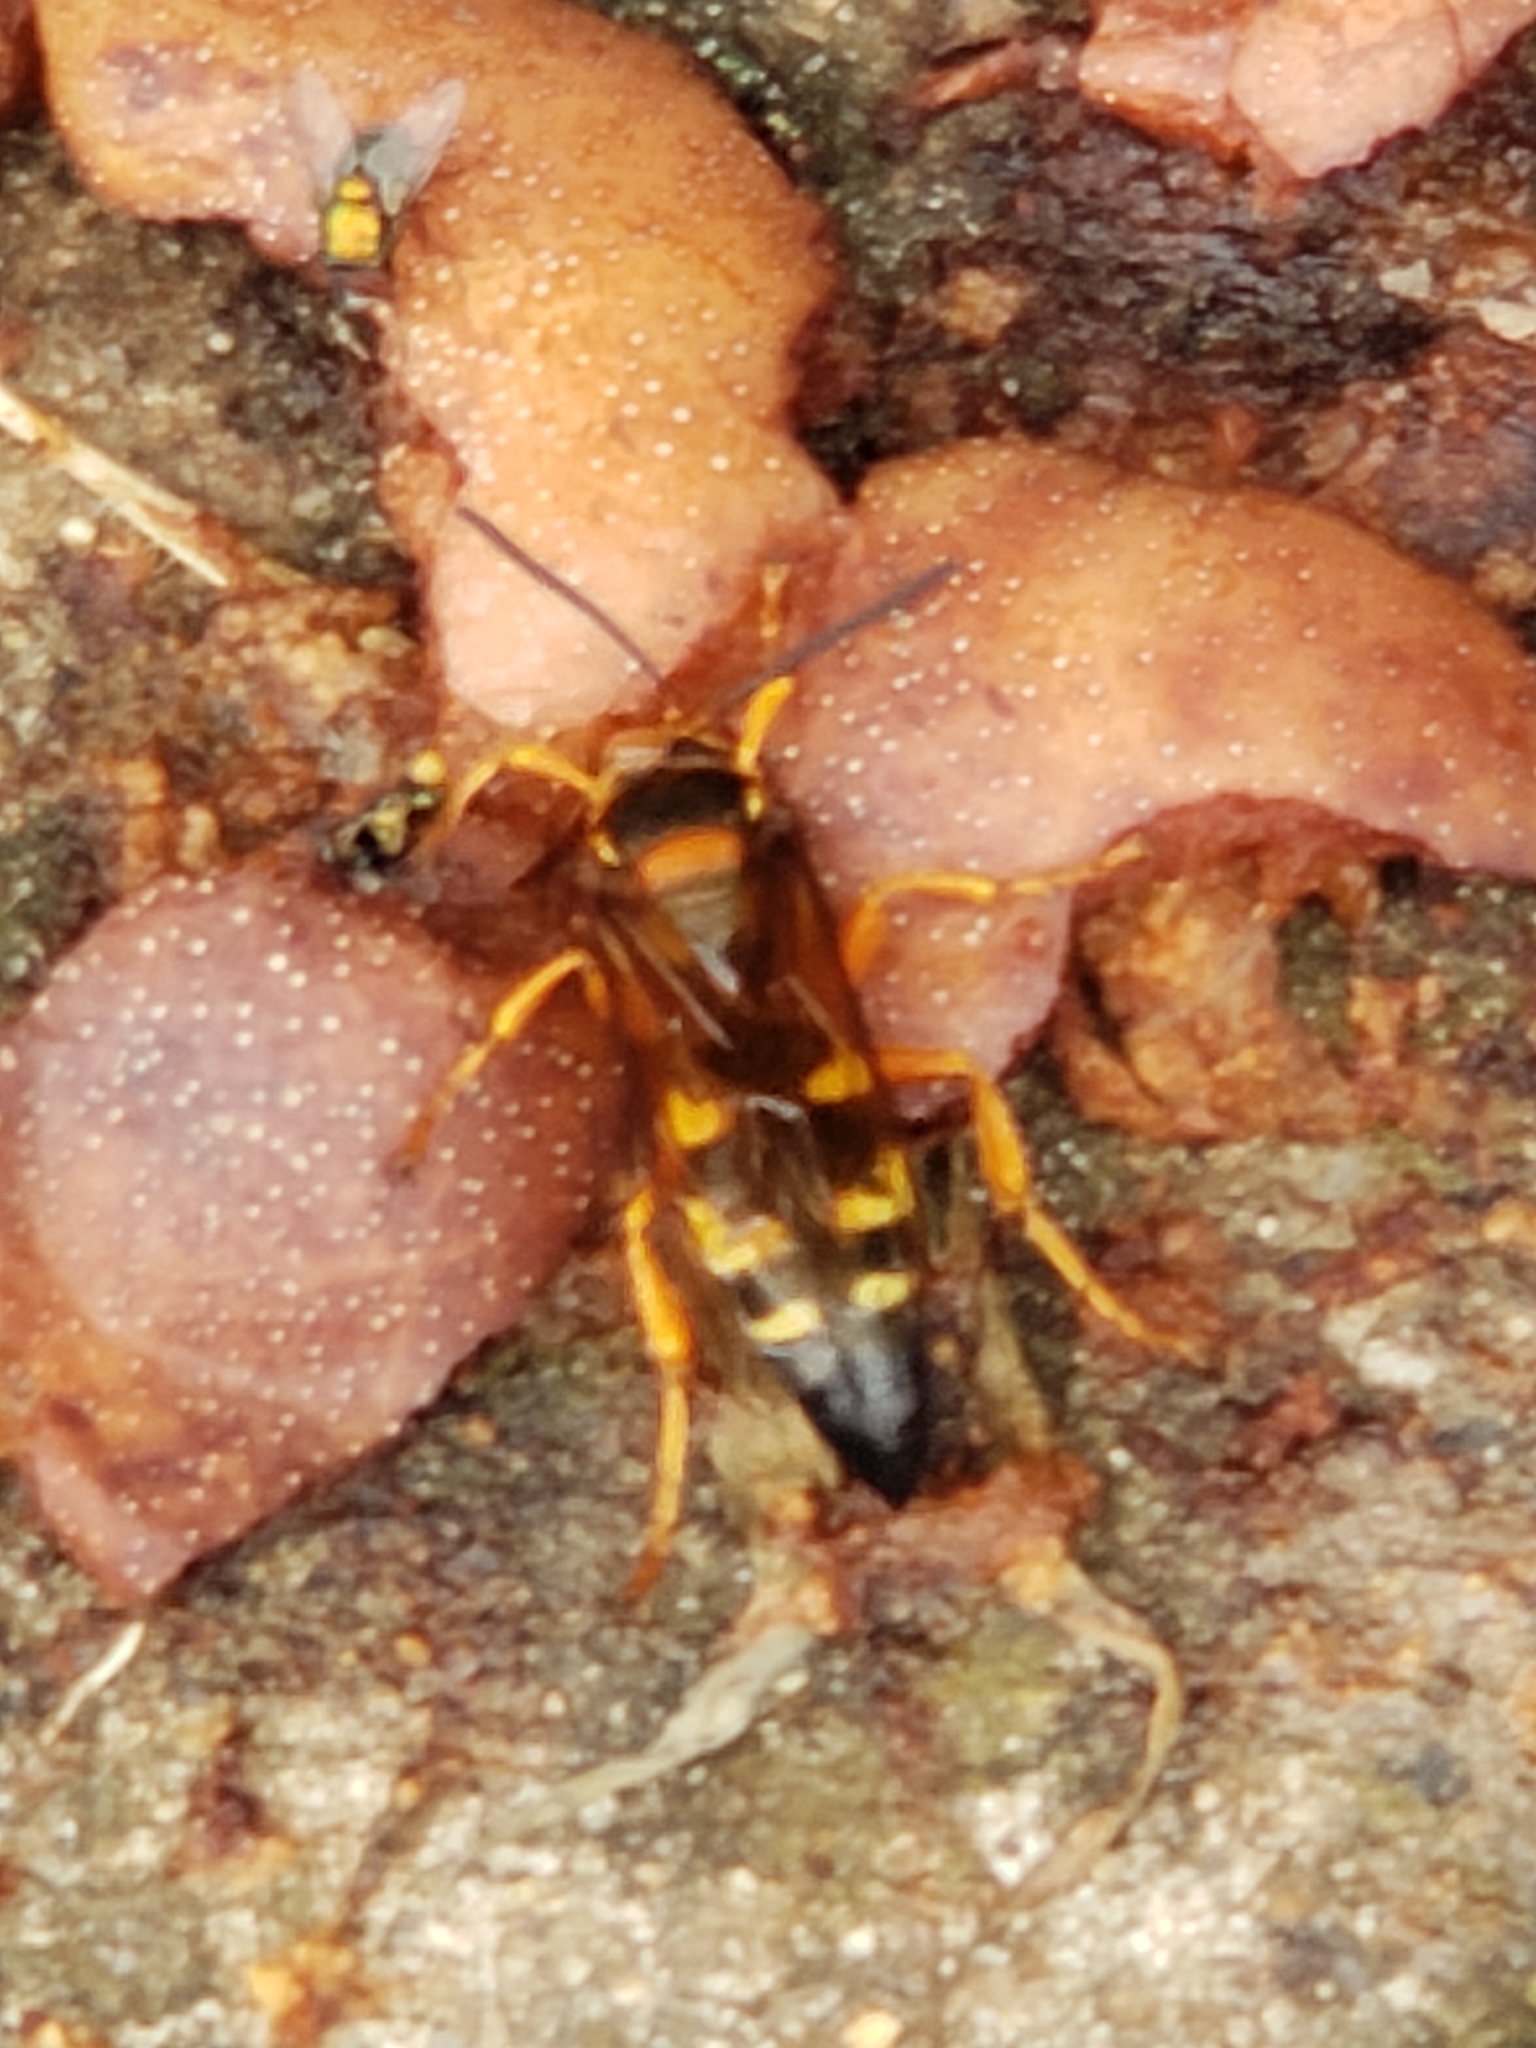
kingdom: Animalia
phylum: Arthropoda
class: Insecta
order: Hymenoptera
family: Crabronidae
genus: Sphecius
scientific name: Sphecius speciosus
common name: Cicada killer
